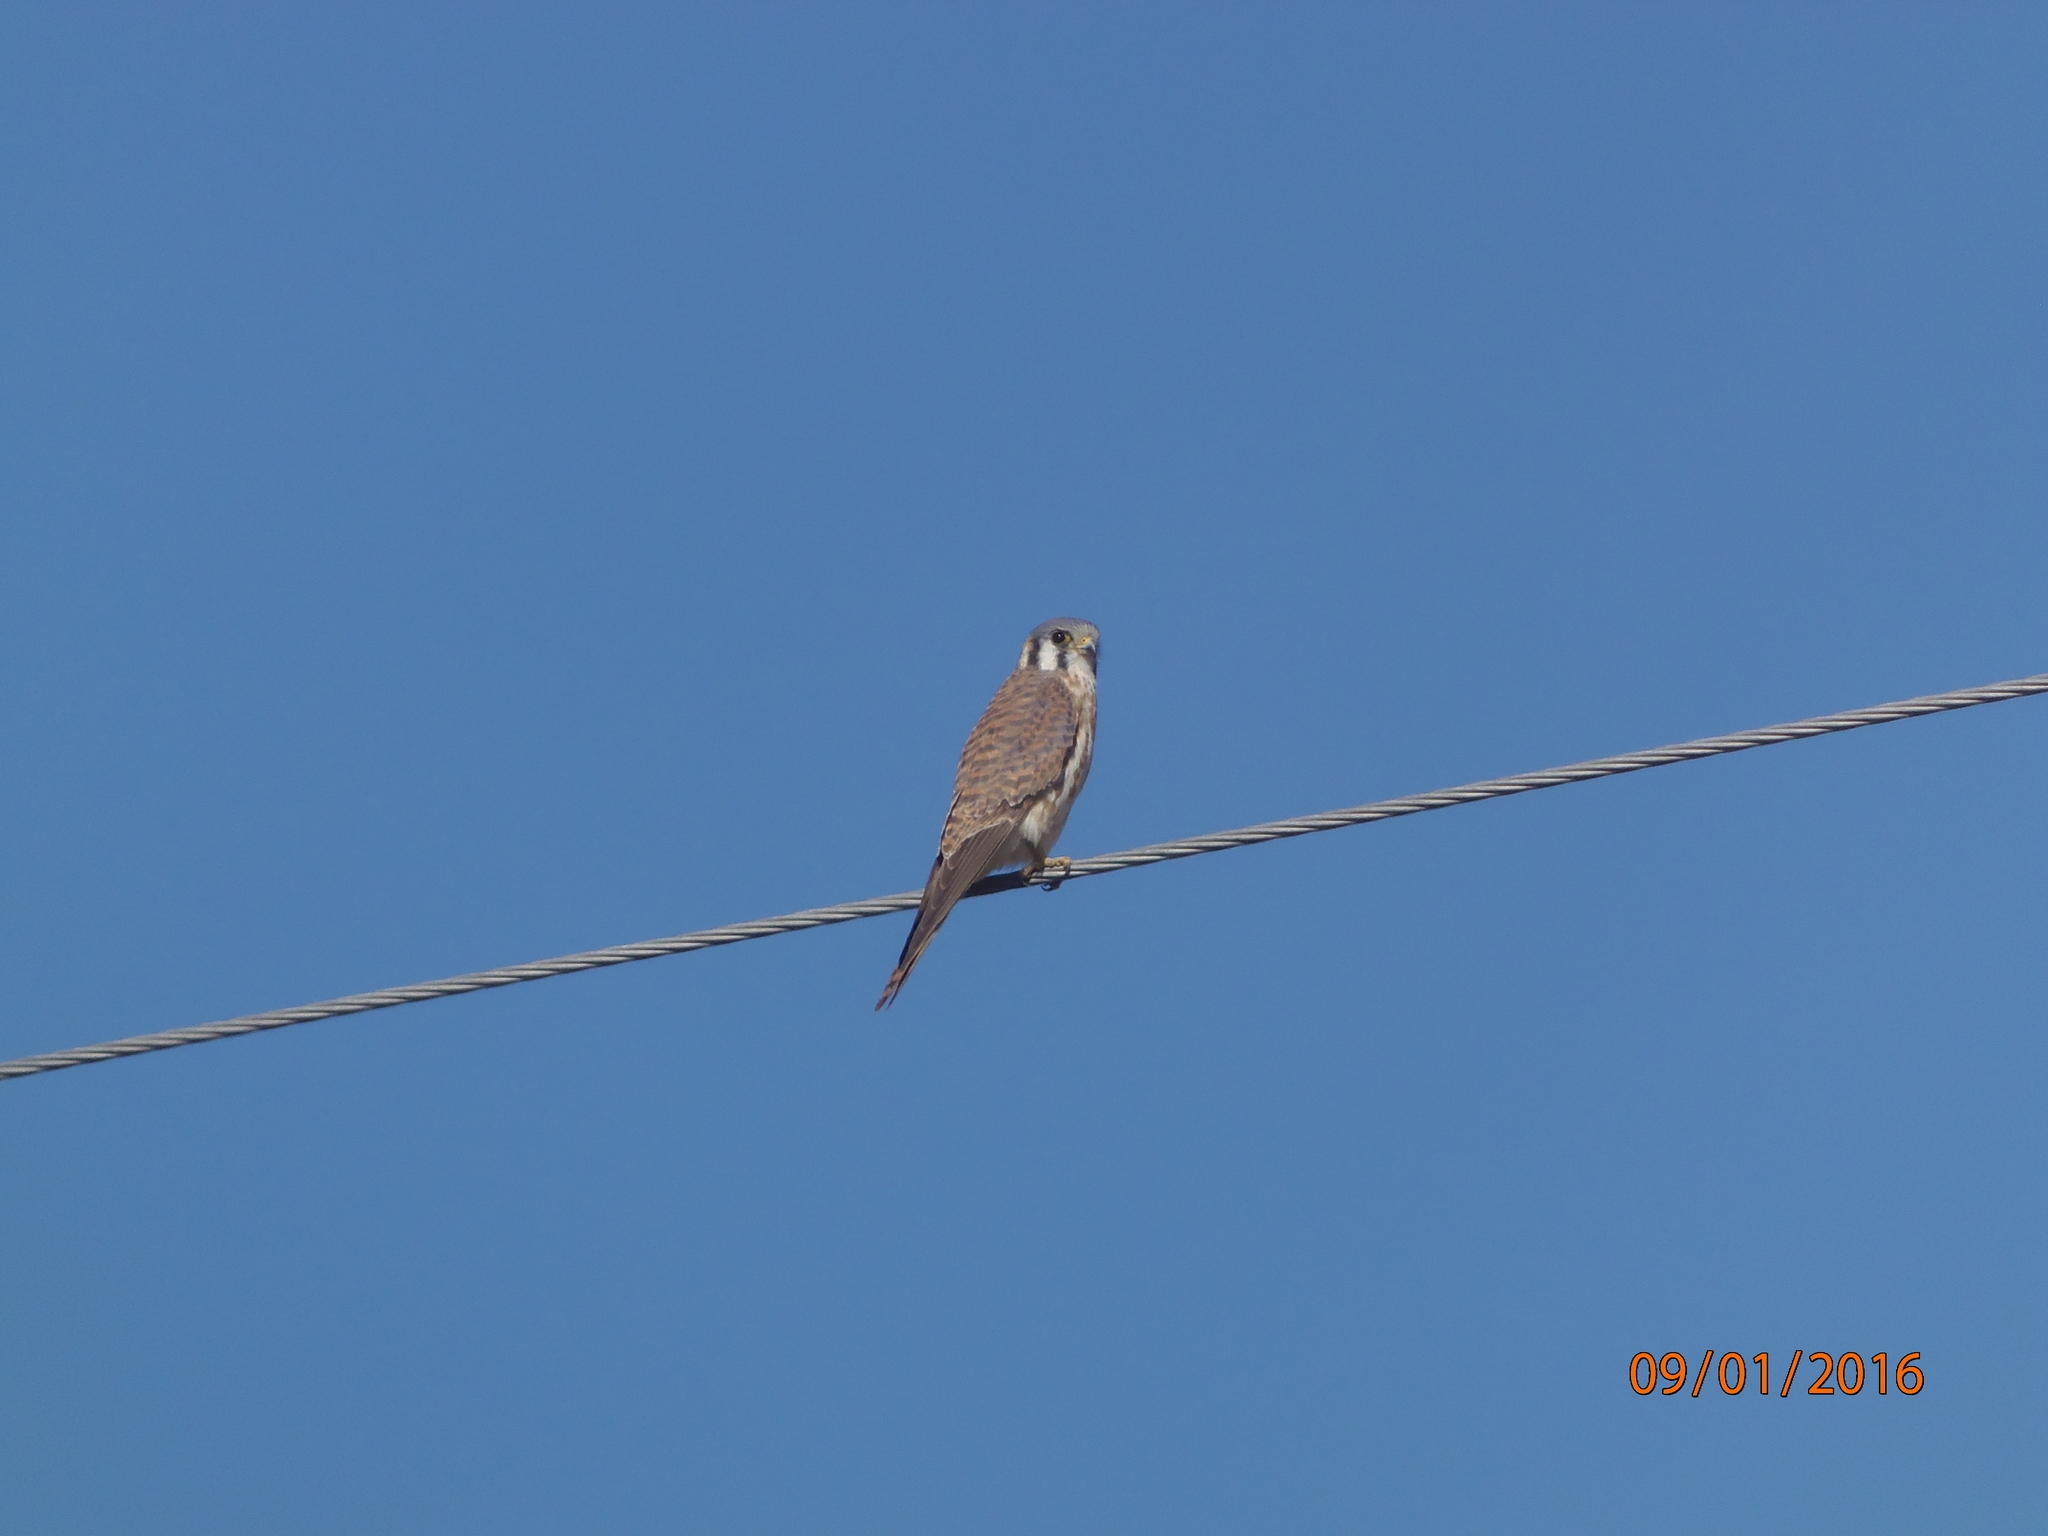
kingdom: Animalia
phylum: Chordata
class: Aves
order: Falconiformes
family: Falconidae
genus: Falco
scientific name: Falco sparverius
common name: American kestrel
